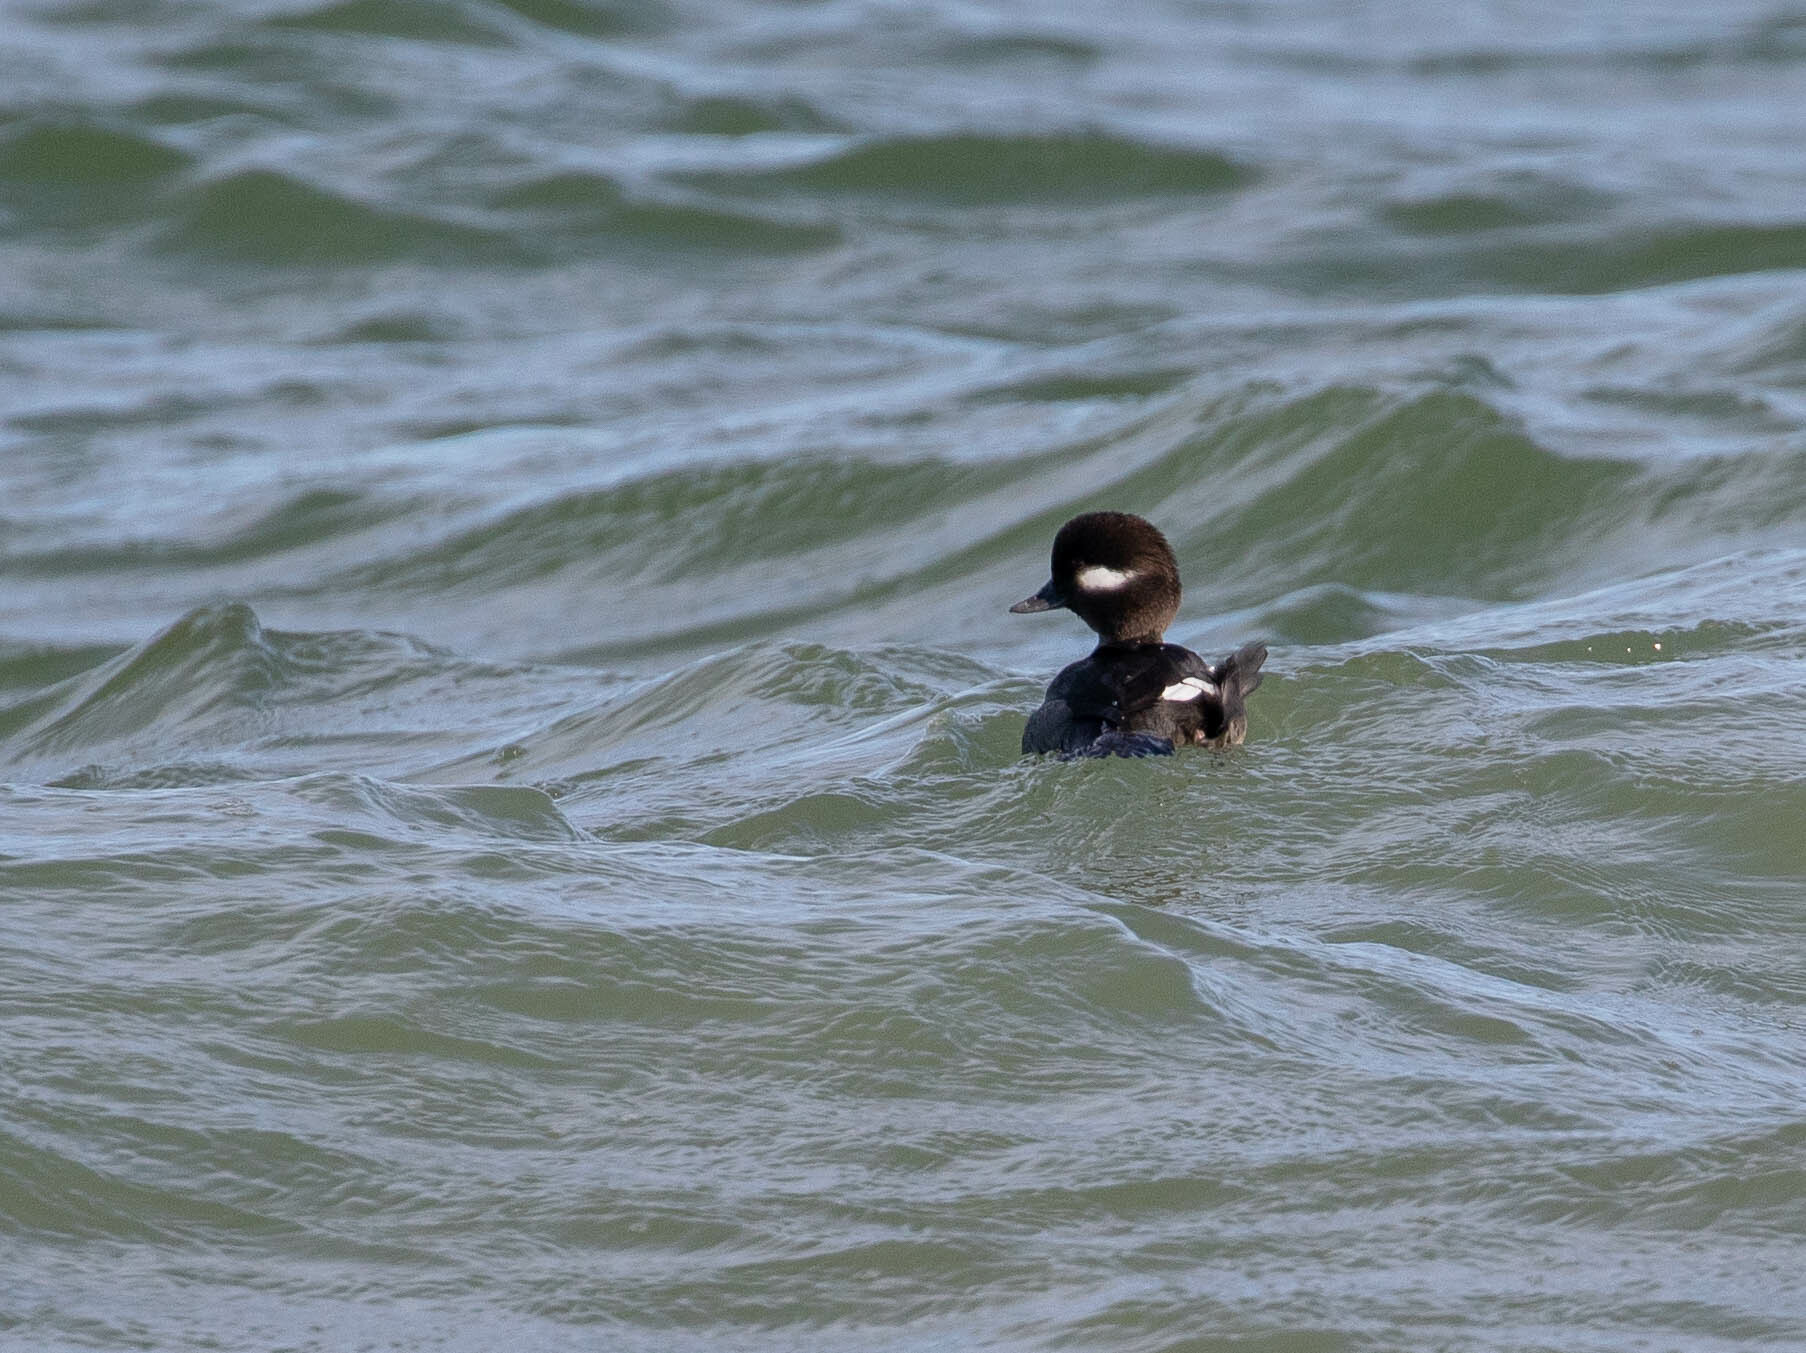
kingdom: Animalia
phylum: Chordata
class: Aves
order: Anseriformes
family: Anatidae
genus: Bucephala
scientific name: Bucephala albeola
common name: Bufflehead
